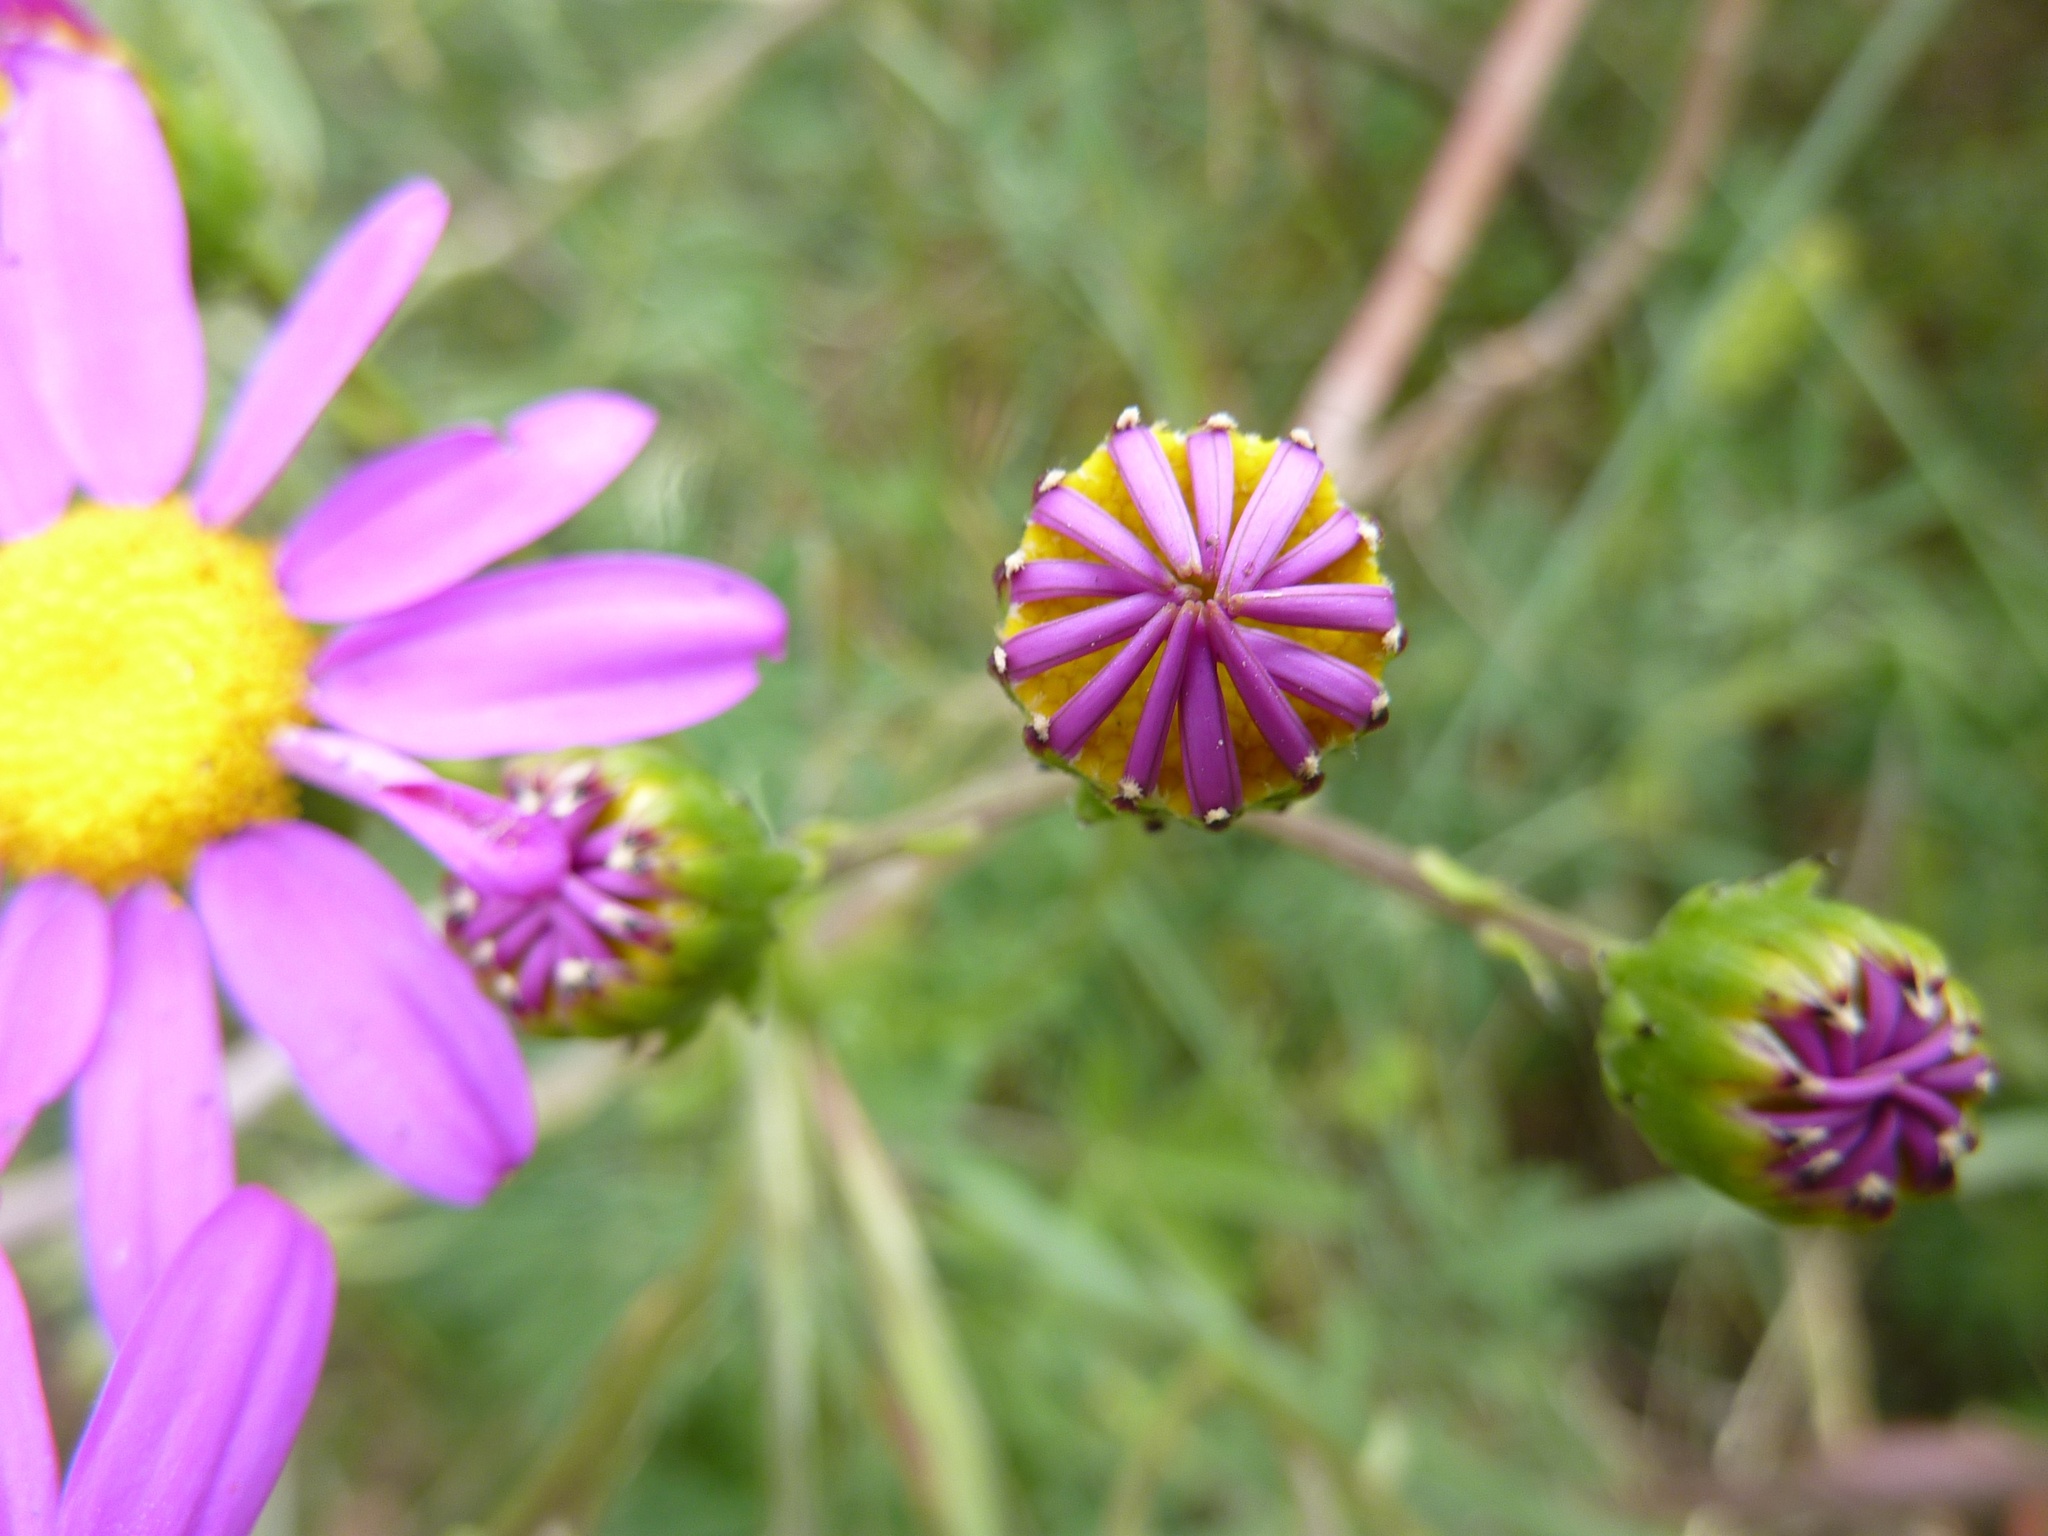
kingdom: Plantae
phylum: Tracheophyta
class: Magnoliopsida
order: Asterales
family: Asteraceae
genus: Senecio
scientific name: Senecio elegans
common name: Purple groundsel
